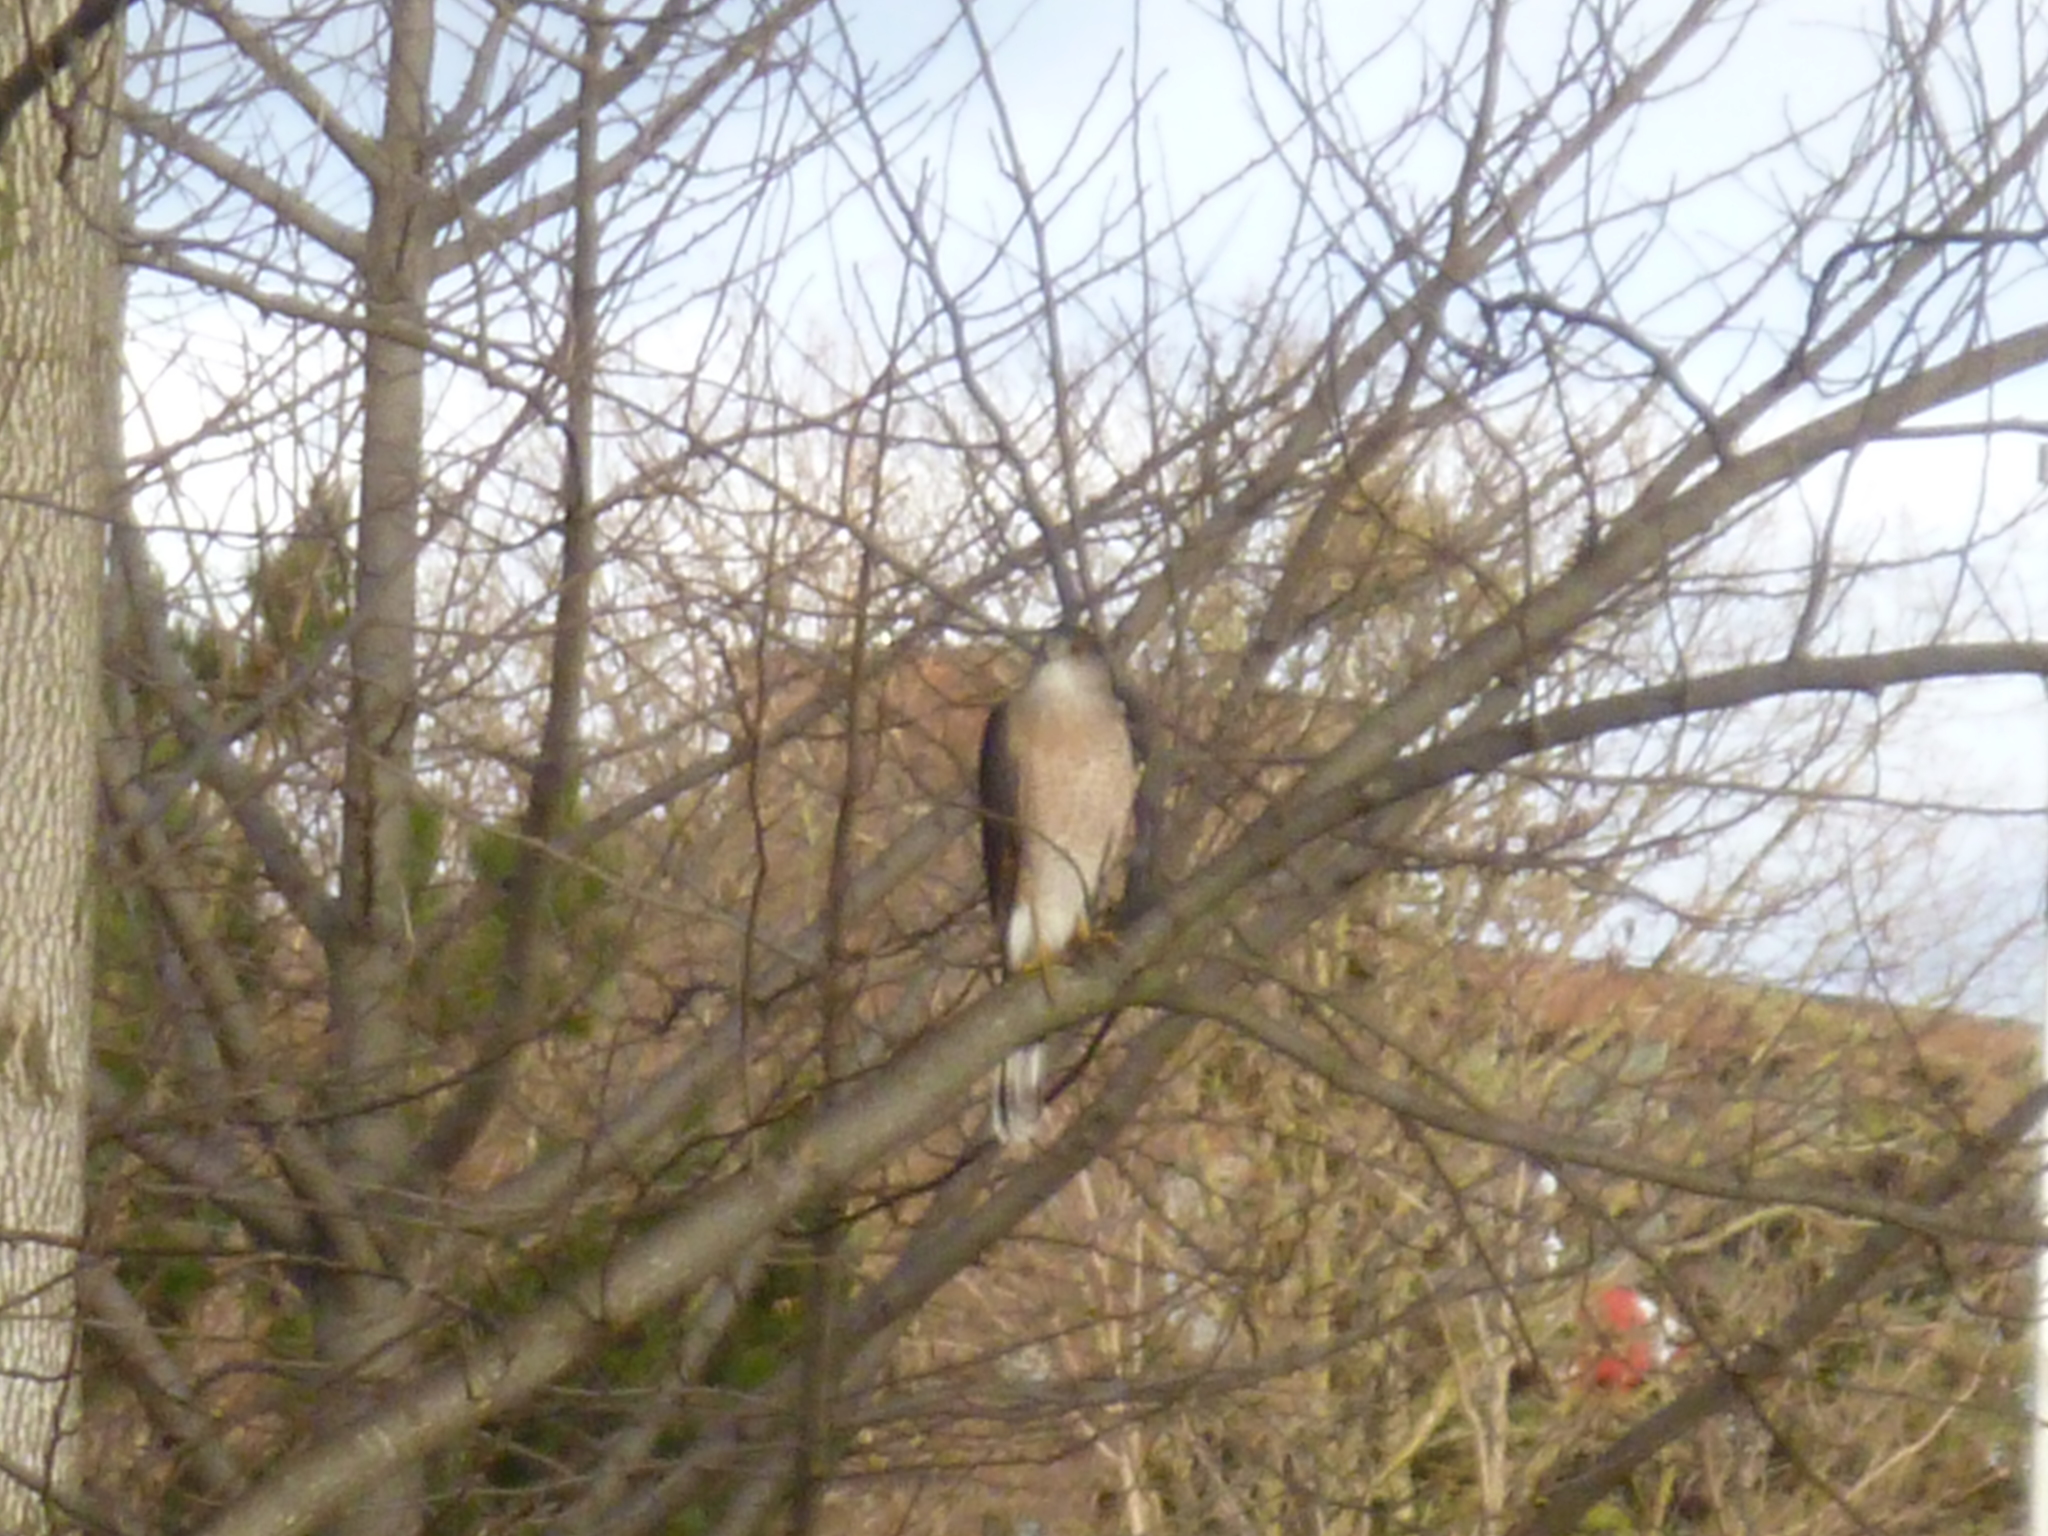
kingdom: Animalia
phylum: Chordata
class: Aves
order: Accipitriformes
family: Accipitridae
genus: Accipiter
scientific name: Accipiter cooperii
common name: Cooper's hawk
